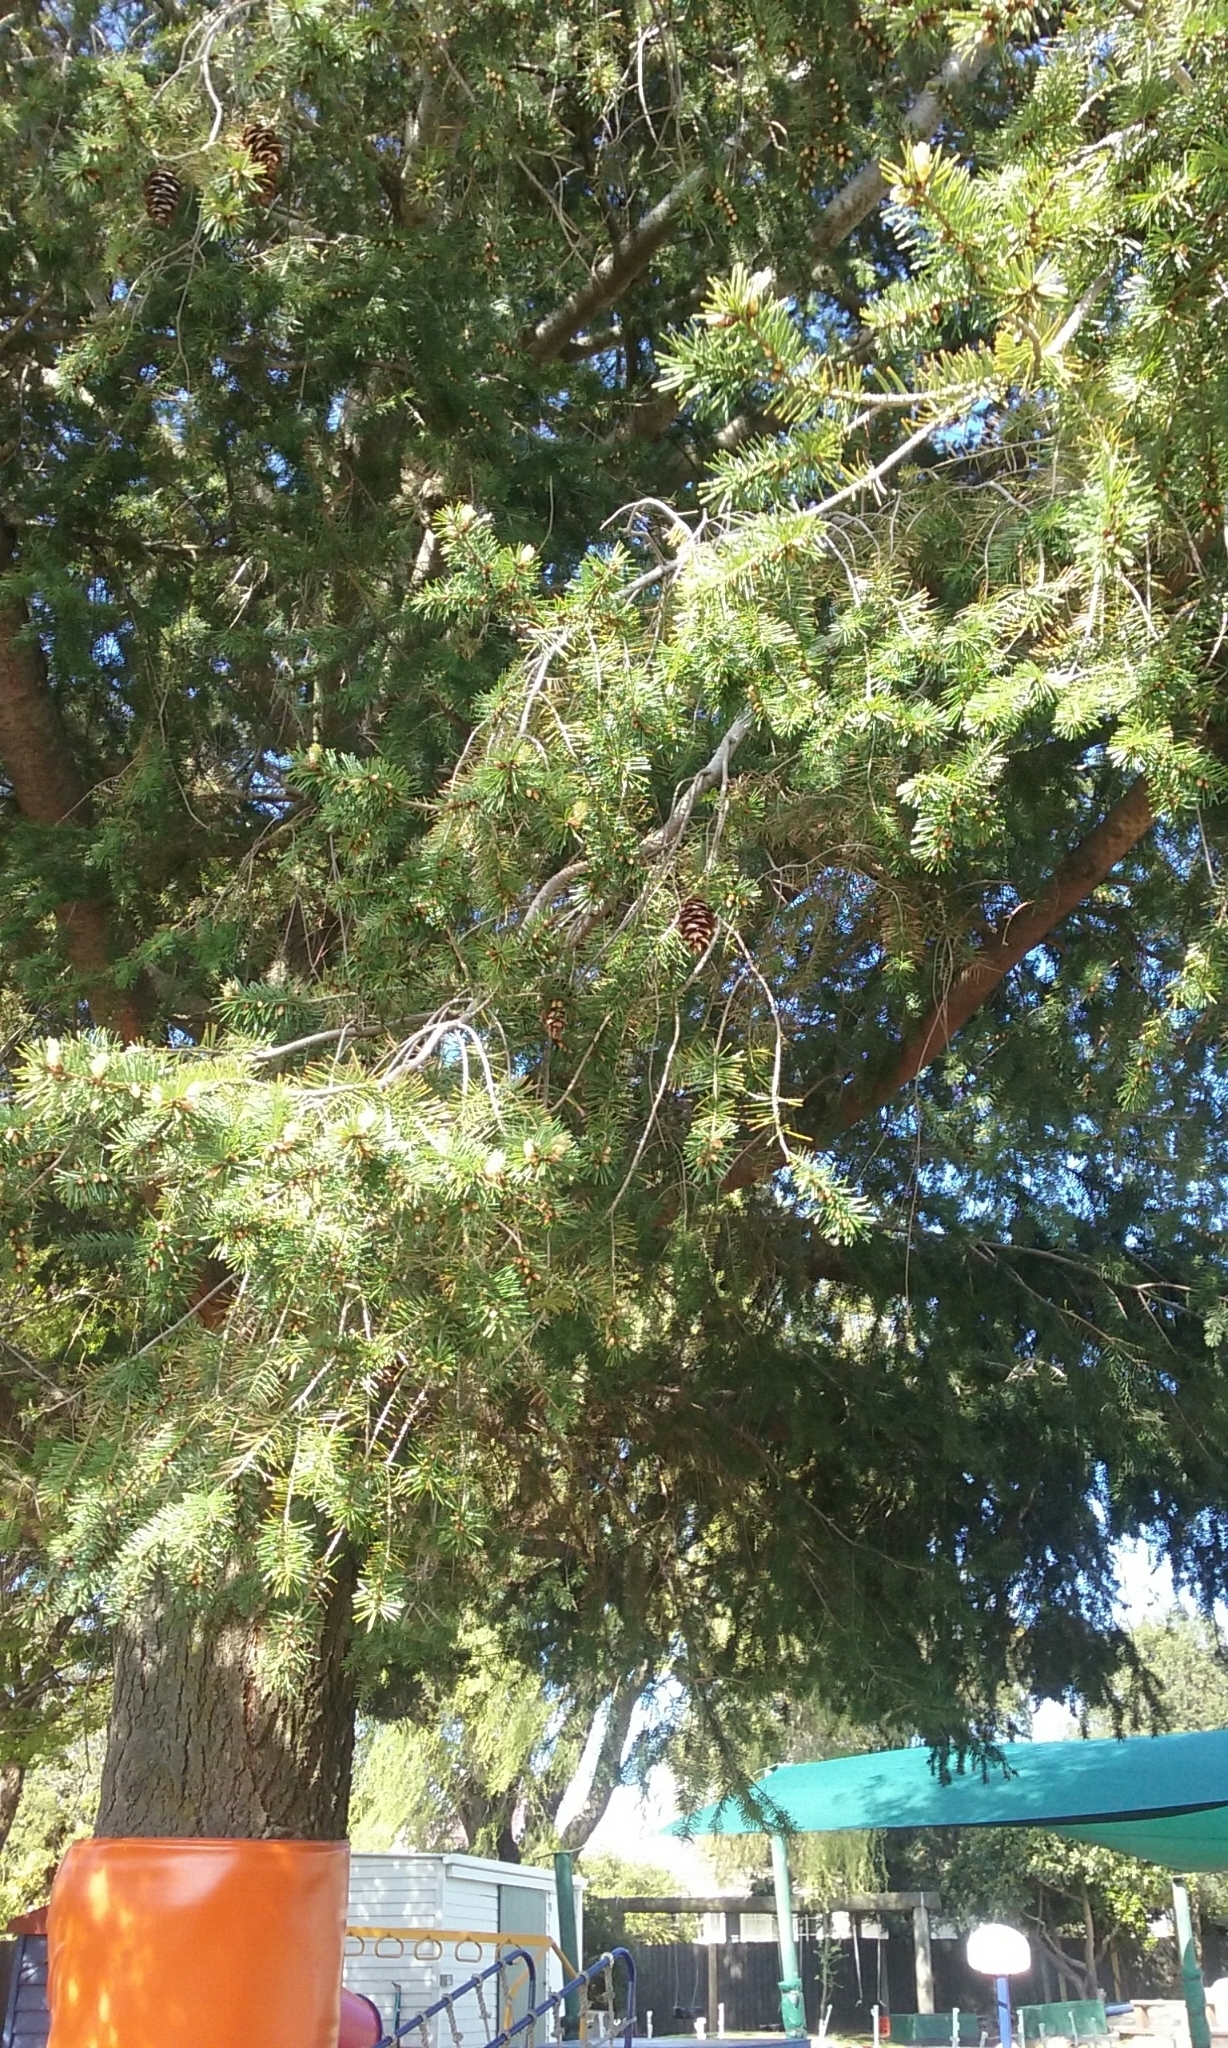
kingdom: Plantae
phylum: Tracheophyta
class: Pinopsida
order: Pinales
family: Pinaceae
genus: Pseudotsuga
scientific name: Pseudotsuga menziesii
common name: Douglas fir
